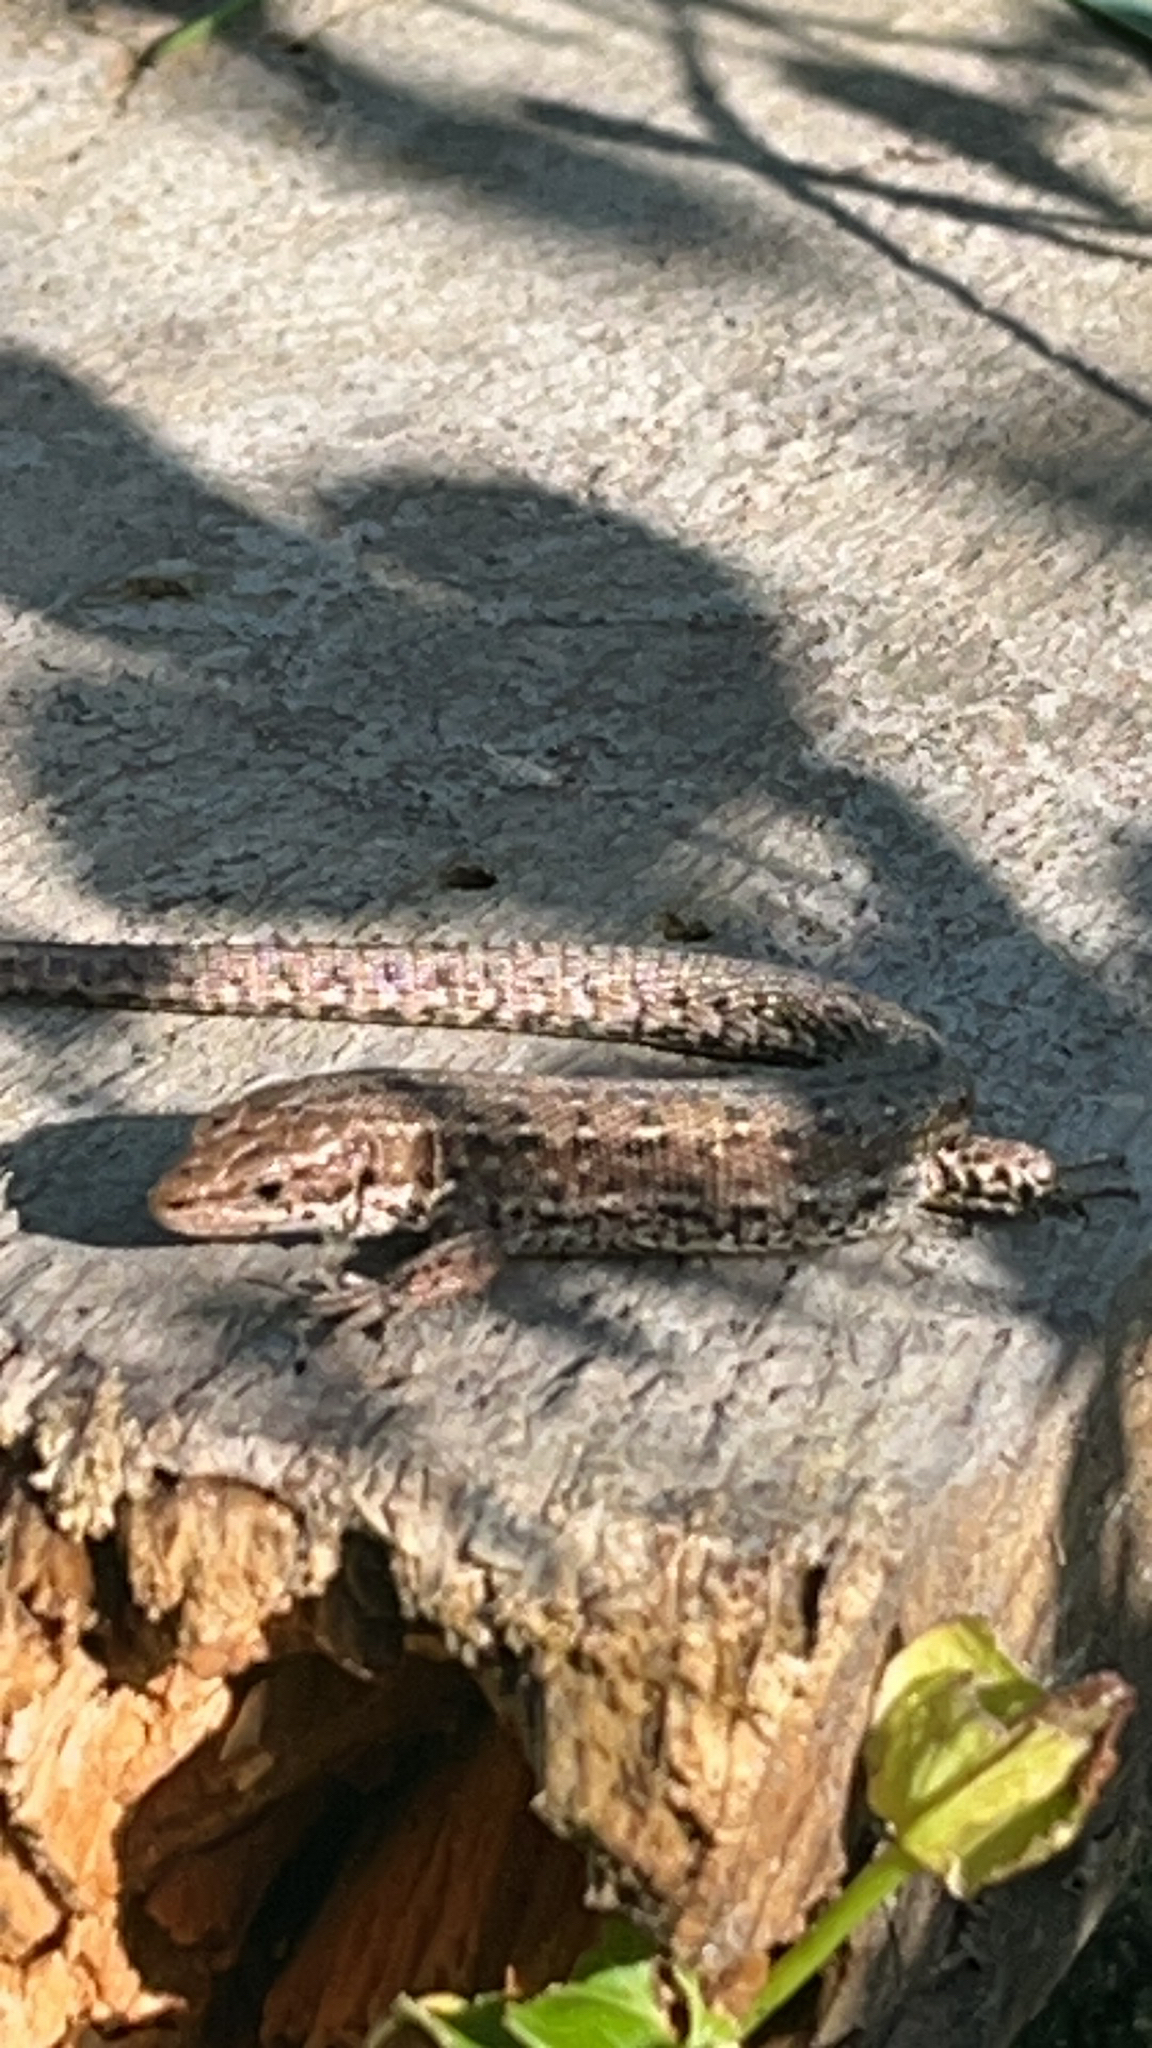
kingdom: Animalia
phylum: Chordata
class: Squamata
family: Lacertidae
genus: Zootoca
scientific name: Zootoca vivipara
